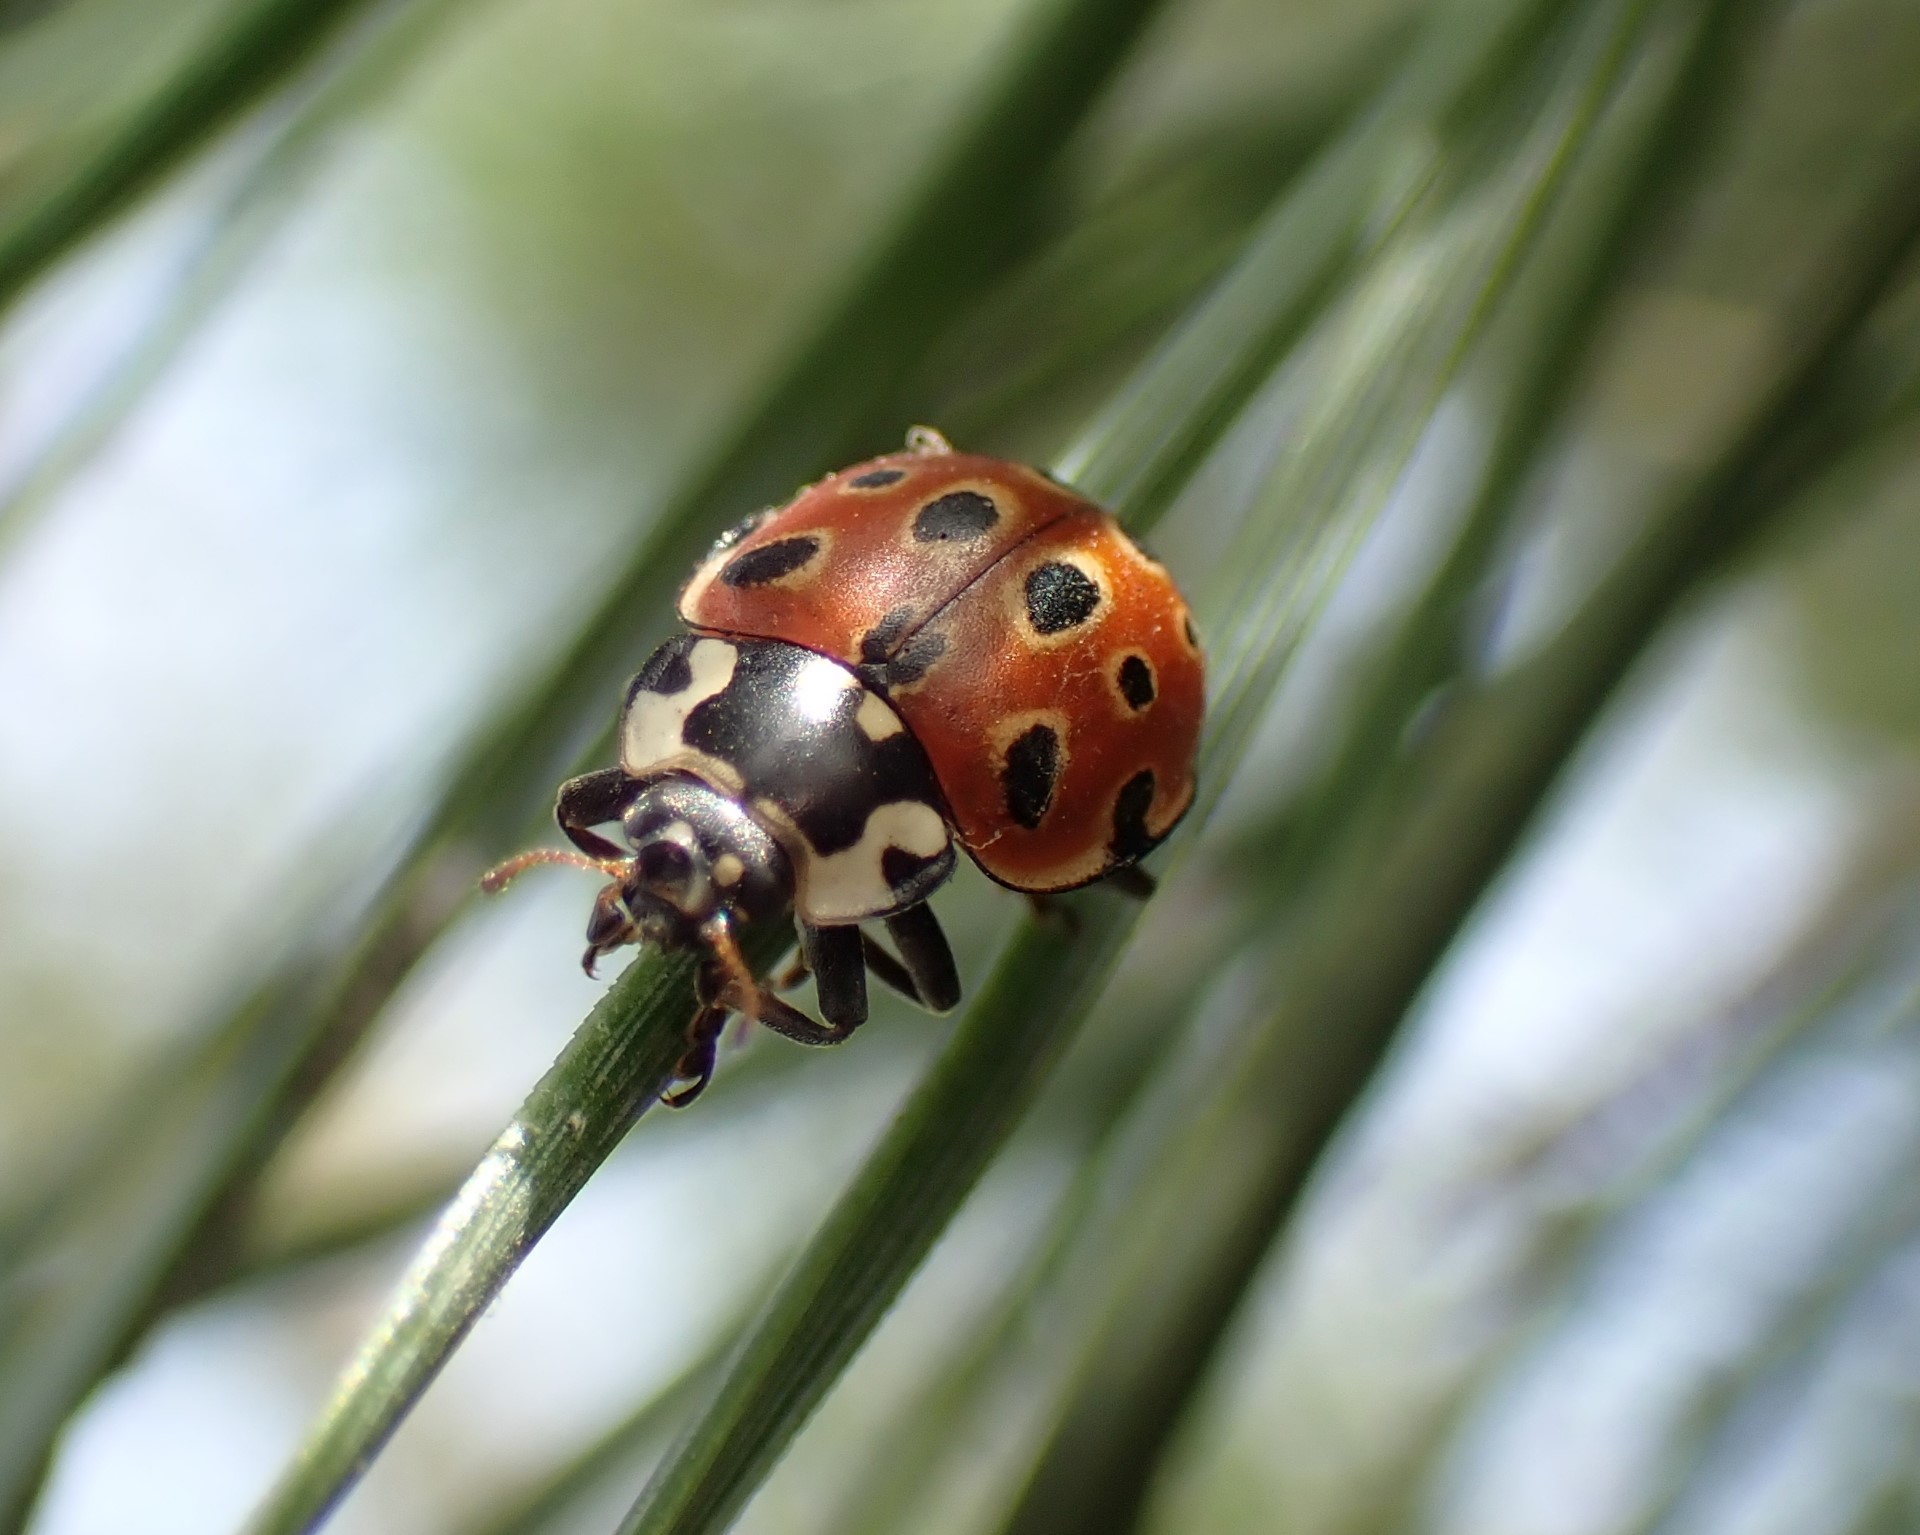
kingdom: Animalia
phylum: Arthropoda
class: Insecta
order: Coleoptera
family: Coccinellidae
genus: Anatis
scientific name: Anatis ocellata
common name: Eyed ladybird
